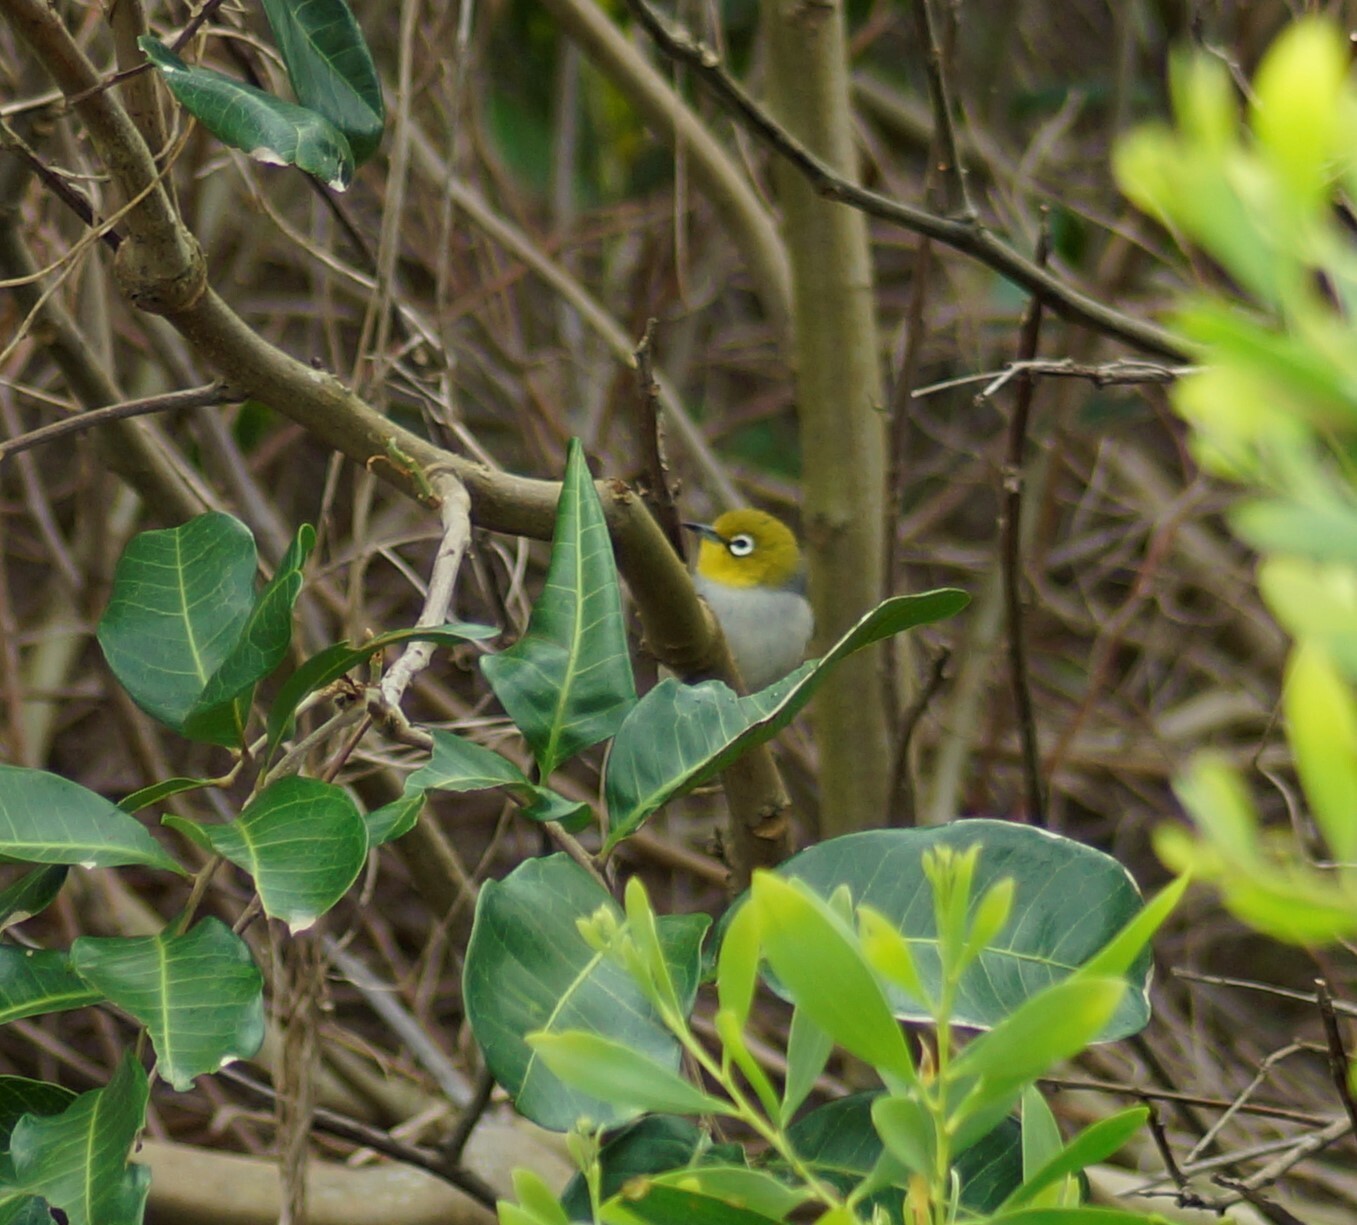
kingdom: Animalia
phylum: Chordata
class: Aves
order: Passeriformes
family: Zosteropidae
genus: Zosterops
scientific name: Zosterops lateralis
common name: Silvereye
